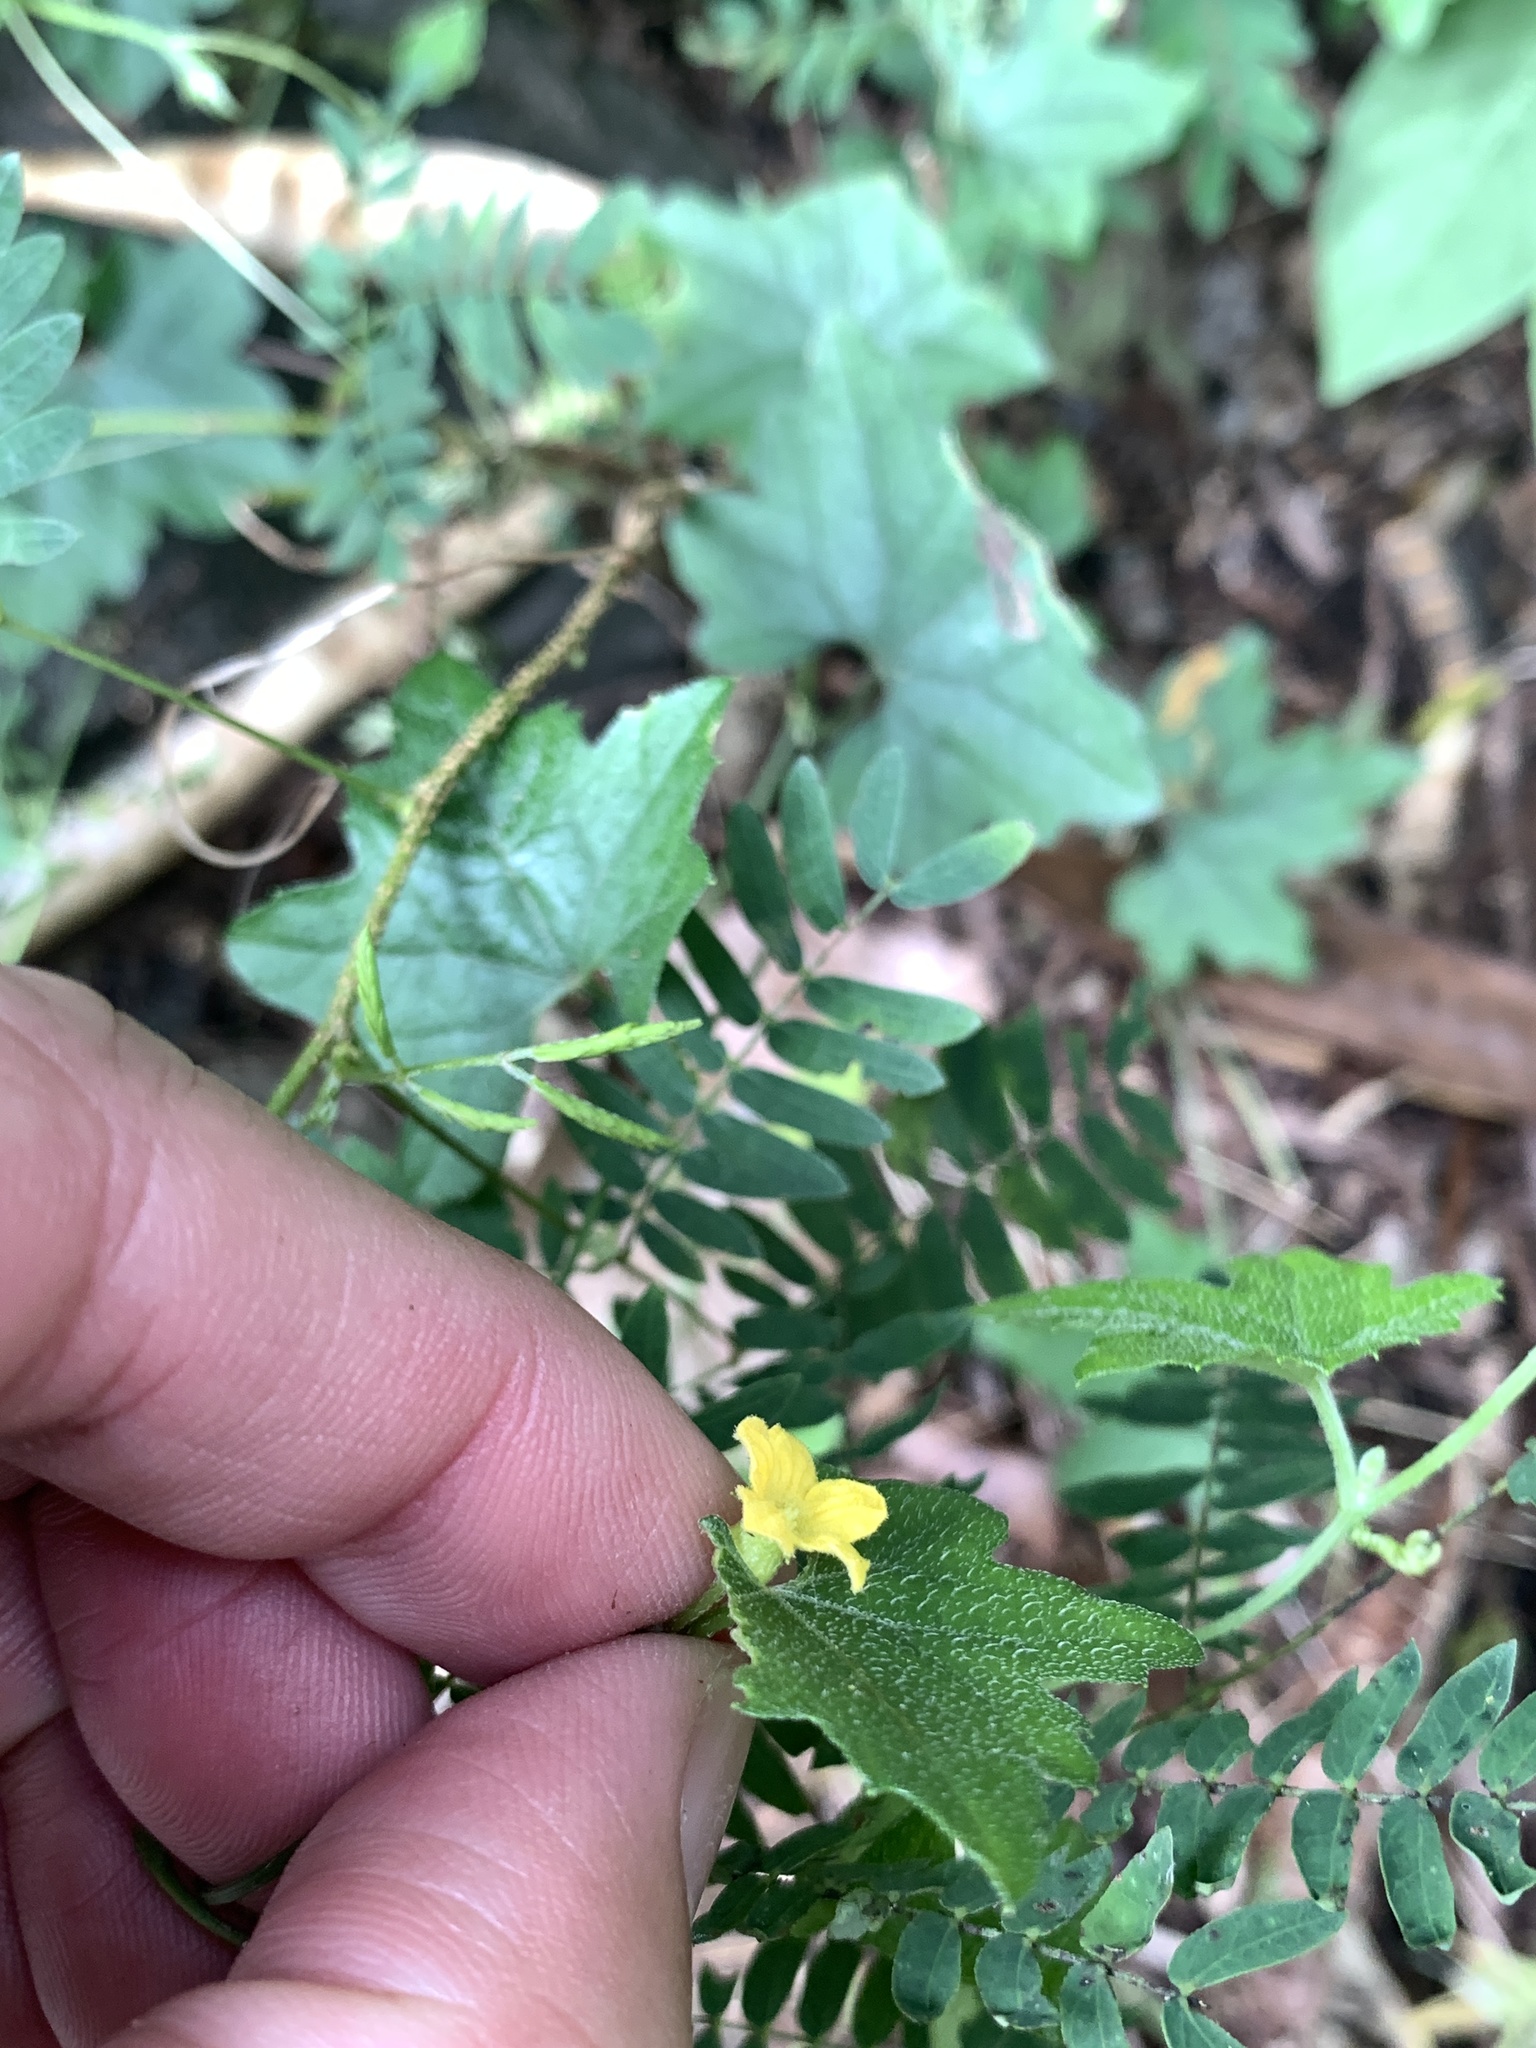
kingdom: Plantae
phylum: Tracheophyta
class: Magnoliopsida
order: Cucurbitales
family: Cucurbitaceae
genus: Melothria
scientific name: Melothria pendula
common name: Creeping-cucumber
